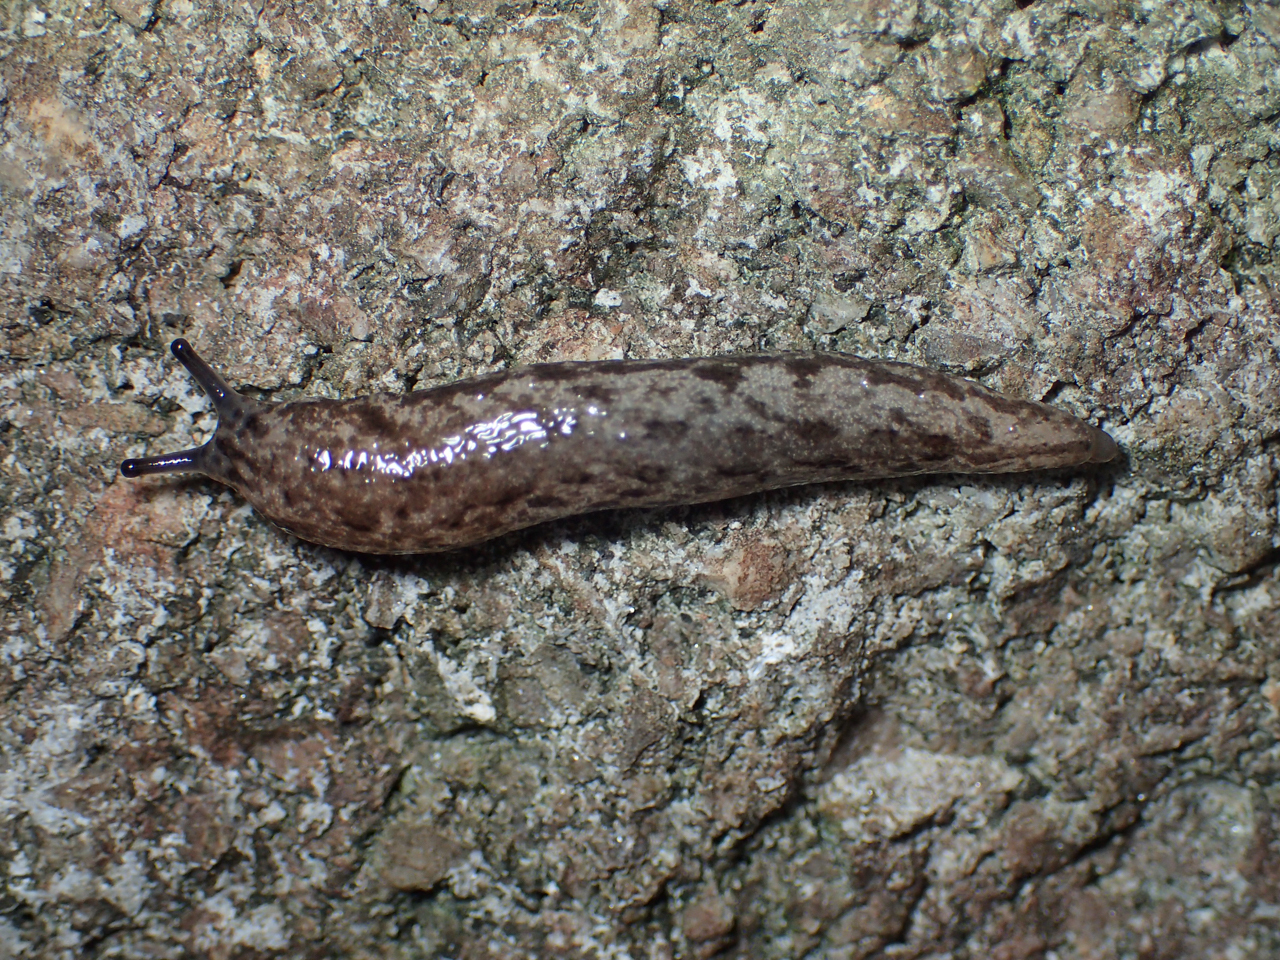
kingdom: Animalia
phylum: Mollusca
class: Gastropoda
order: Stylommatophora
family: Philomycidae
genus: Megapallifera
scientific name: Megapallifera mutabilis
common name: Changeable mantleslug
